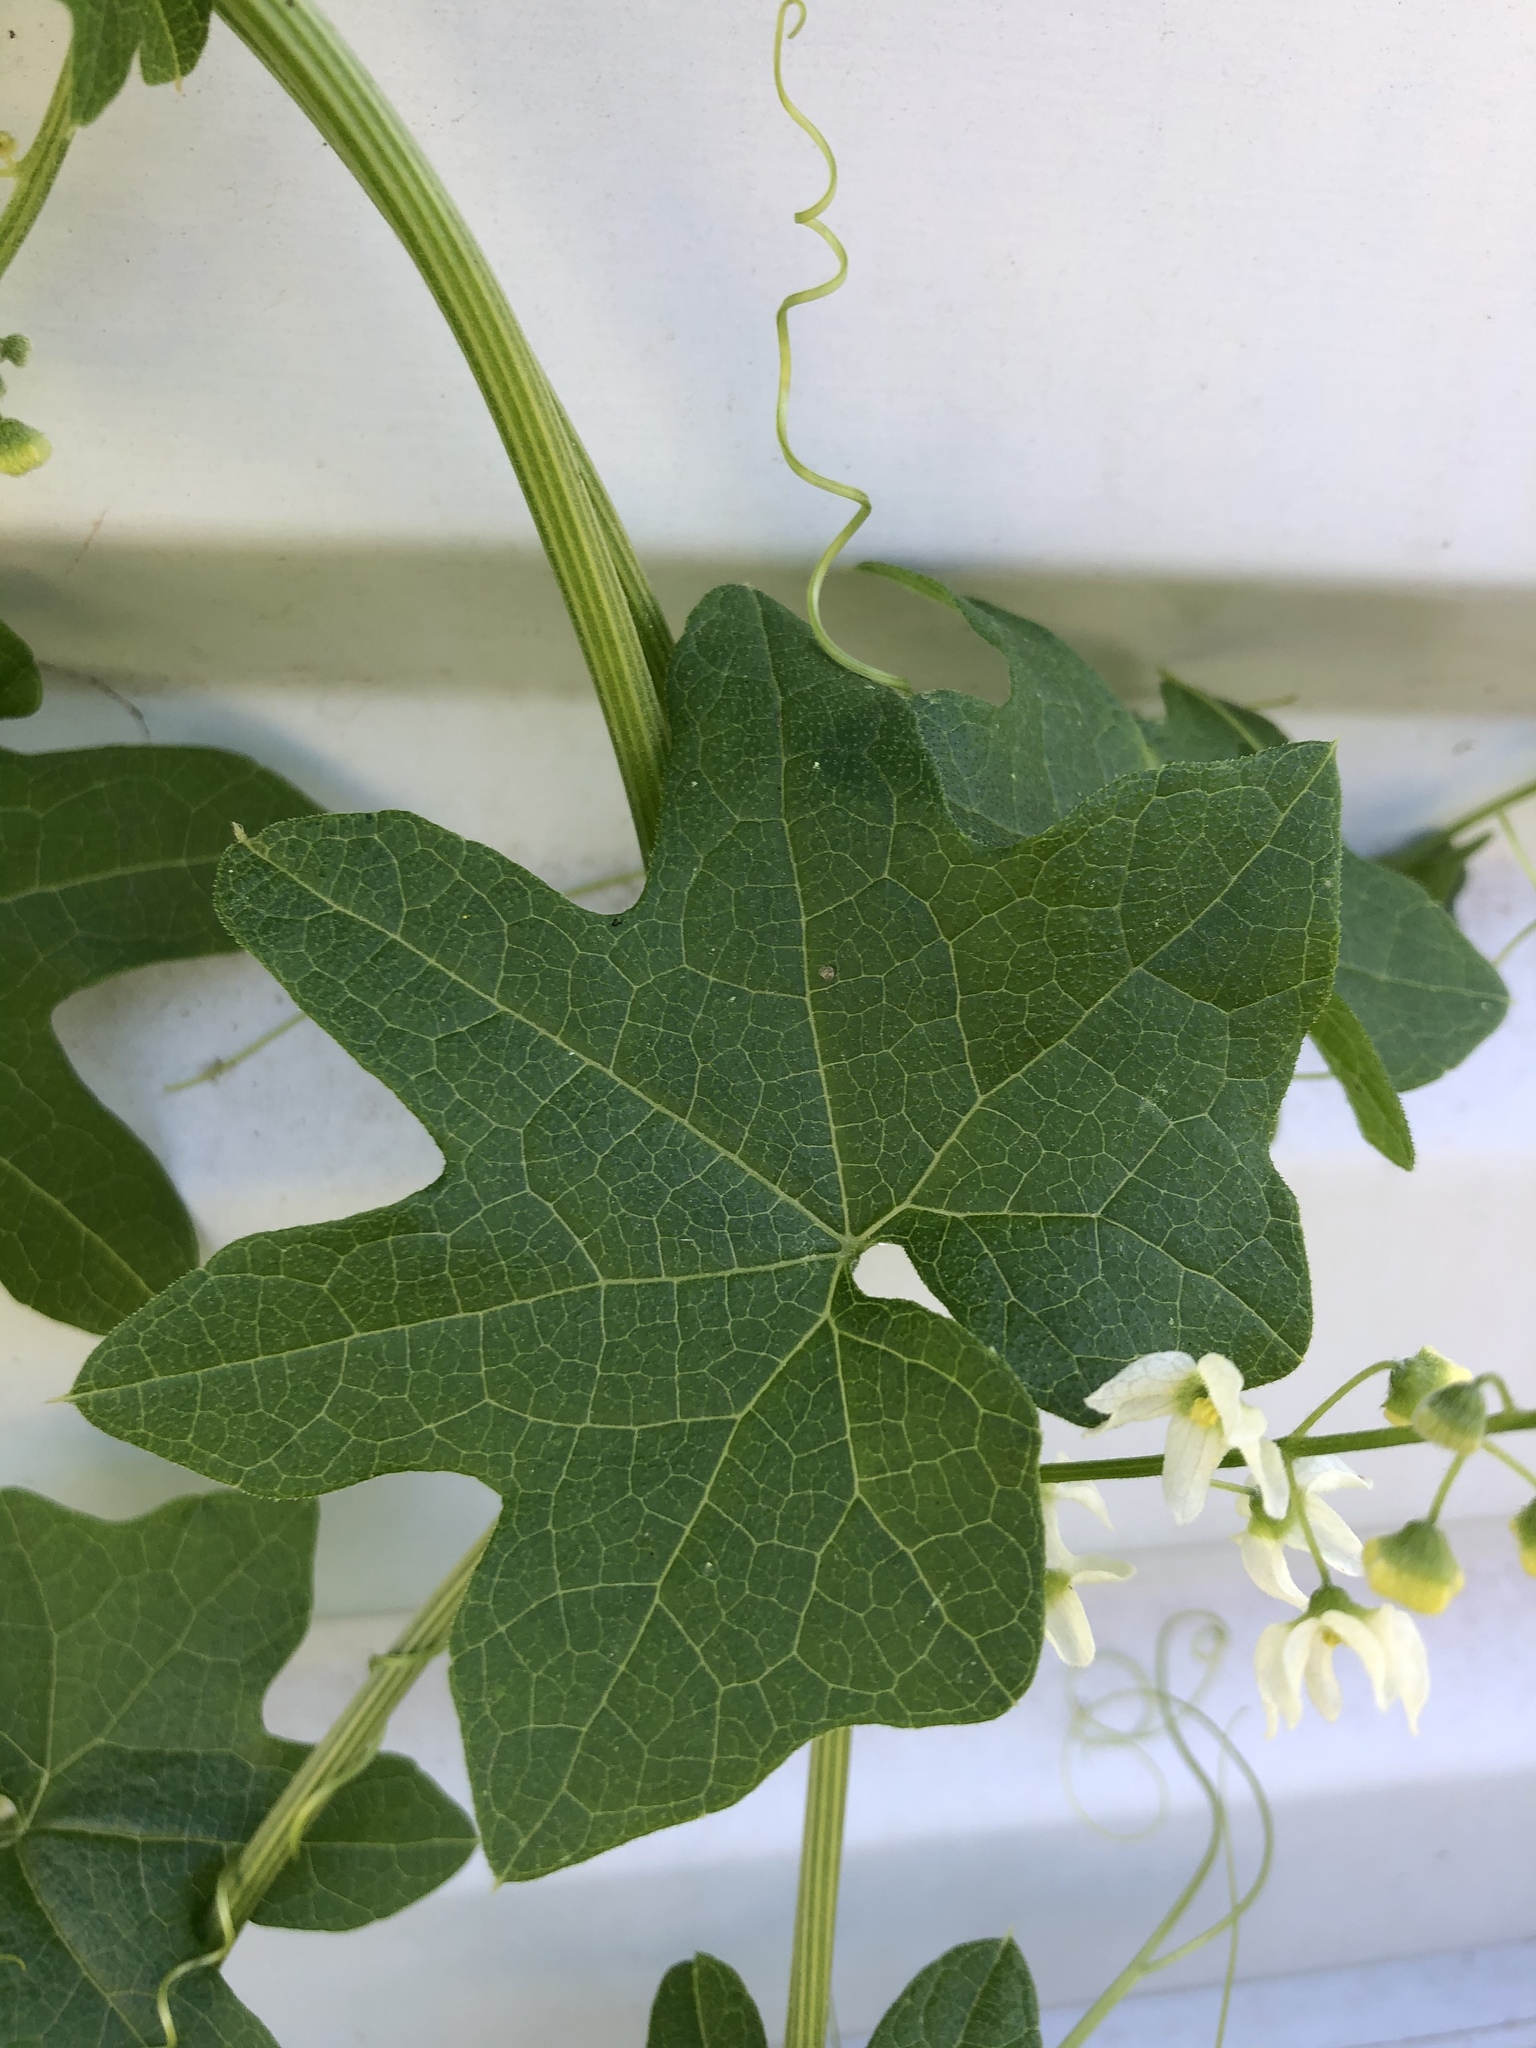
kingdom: Plantae
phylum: Tracheophyta
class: Magnoliopsida
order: Cucurbitales
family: Cucurbitaceae
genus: Marah
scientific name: Marah macrocarpa
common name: Cucamonga manroot
